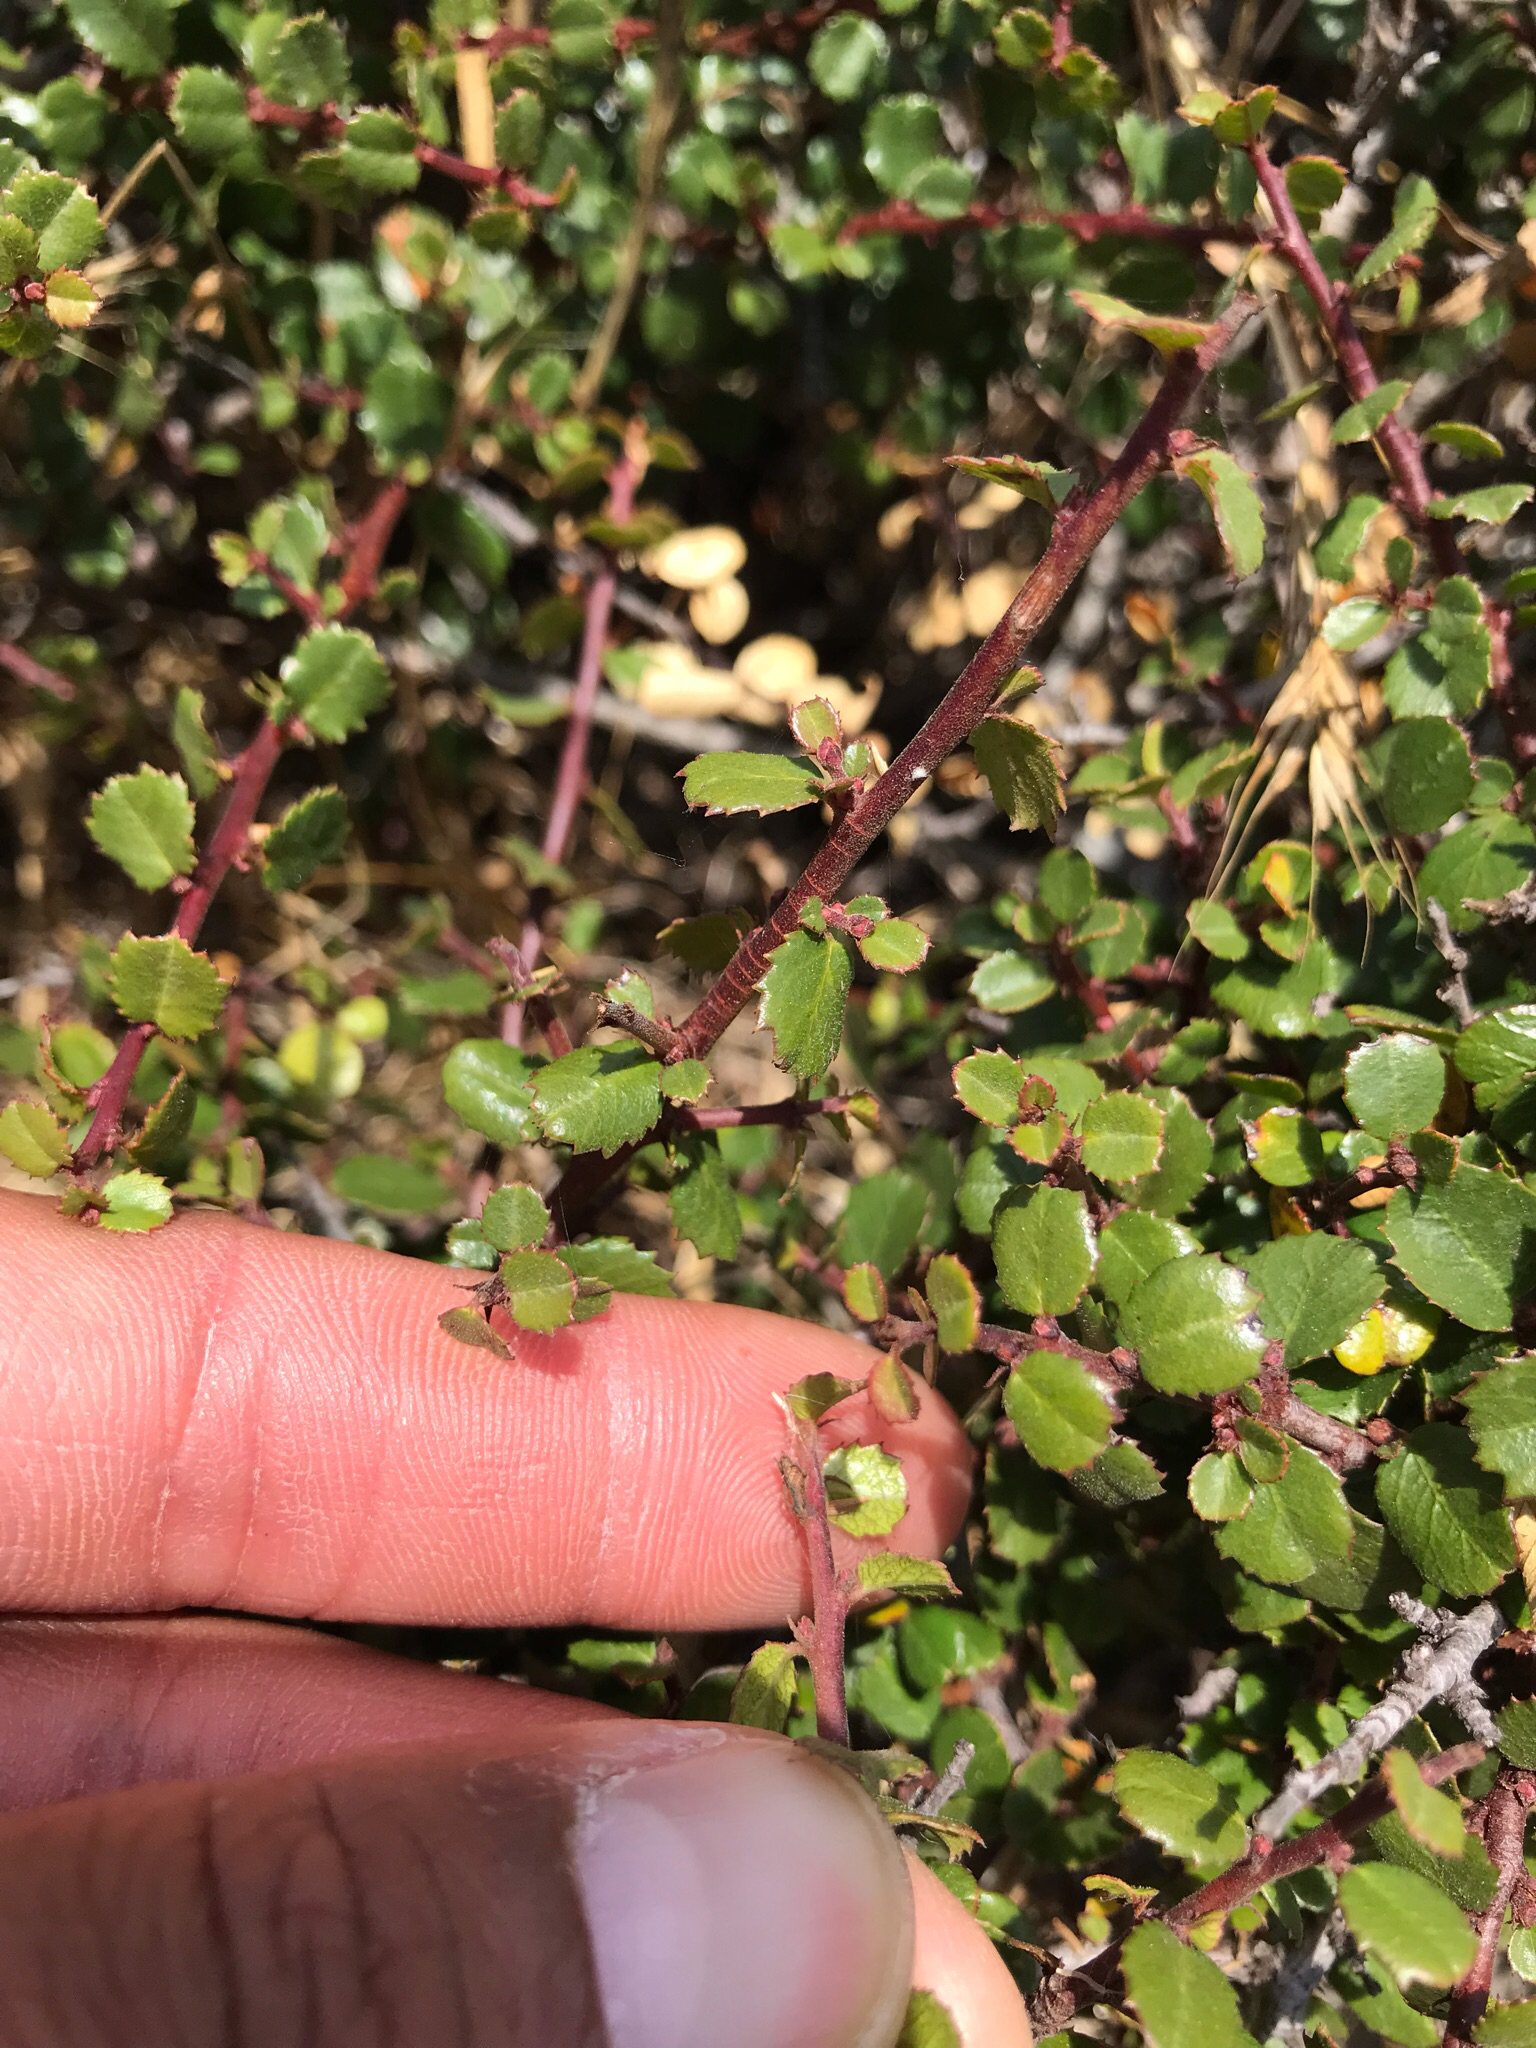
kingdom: Plantae
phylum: Tracheophyta
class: Magnoliopsida
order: Rosales
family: Rhamnaceae
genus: Endotropis
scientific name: Endotropis crocea
